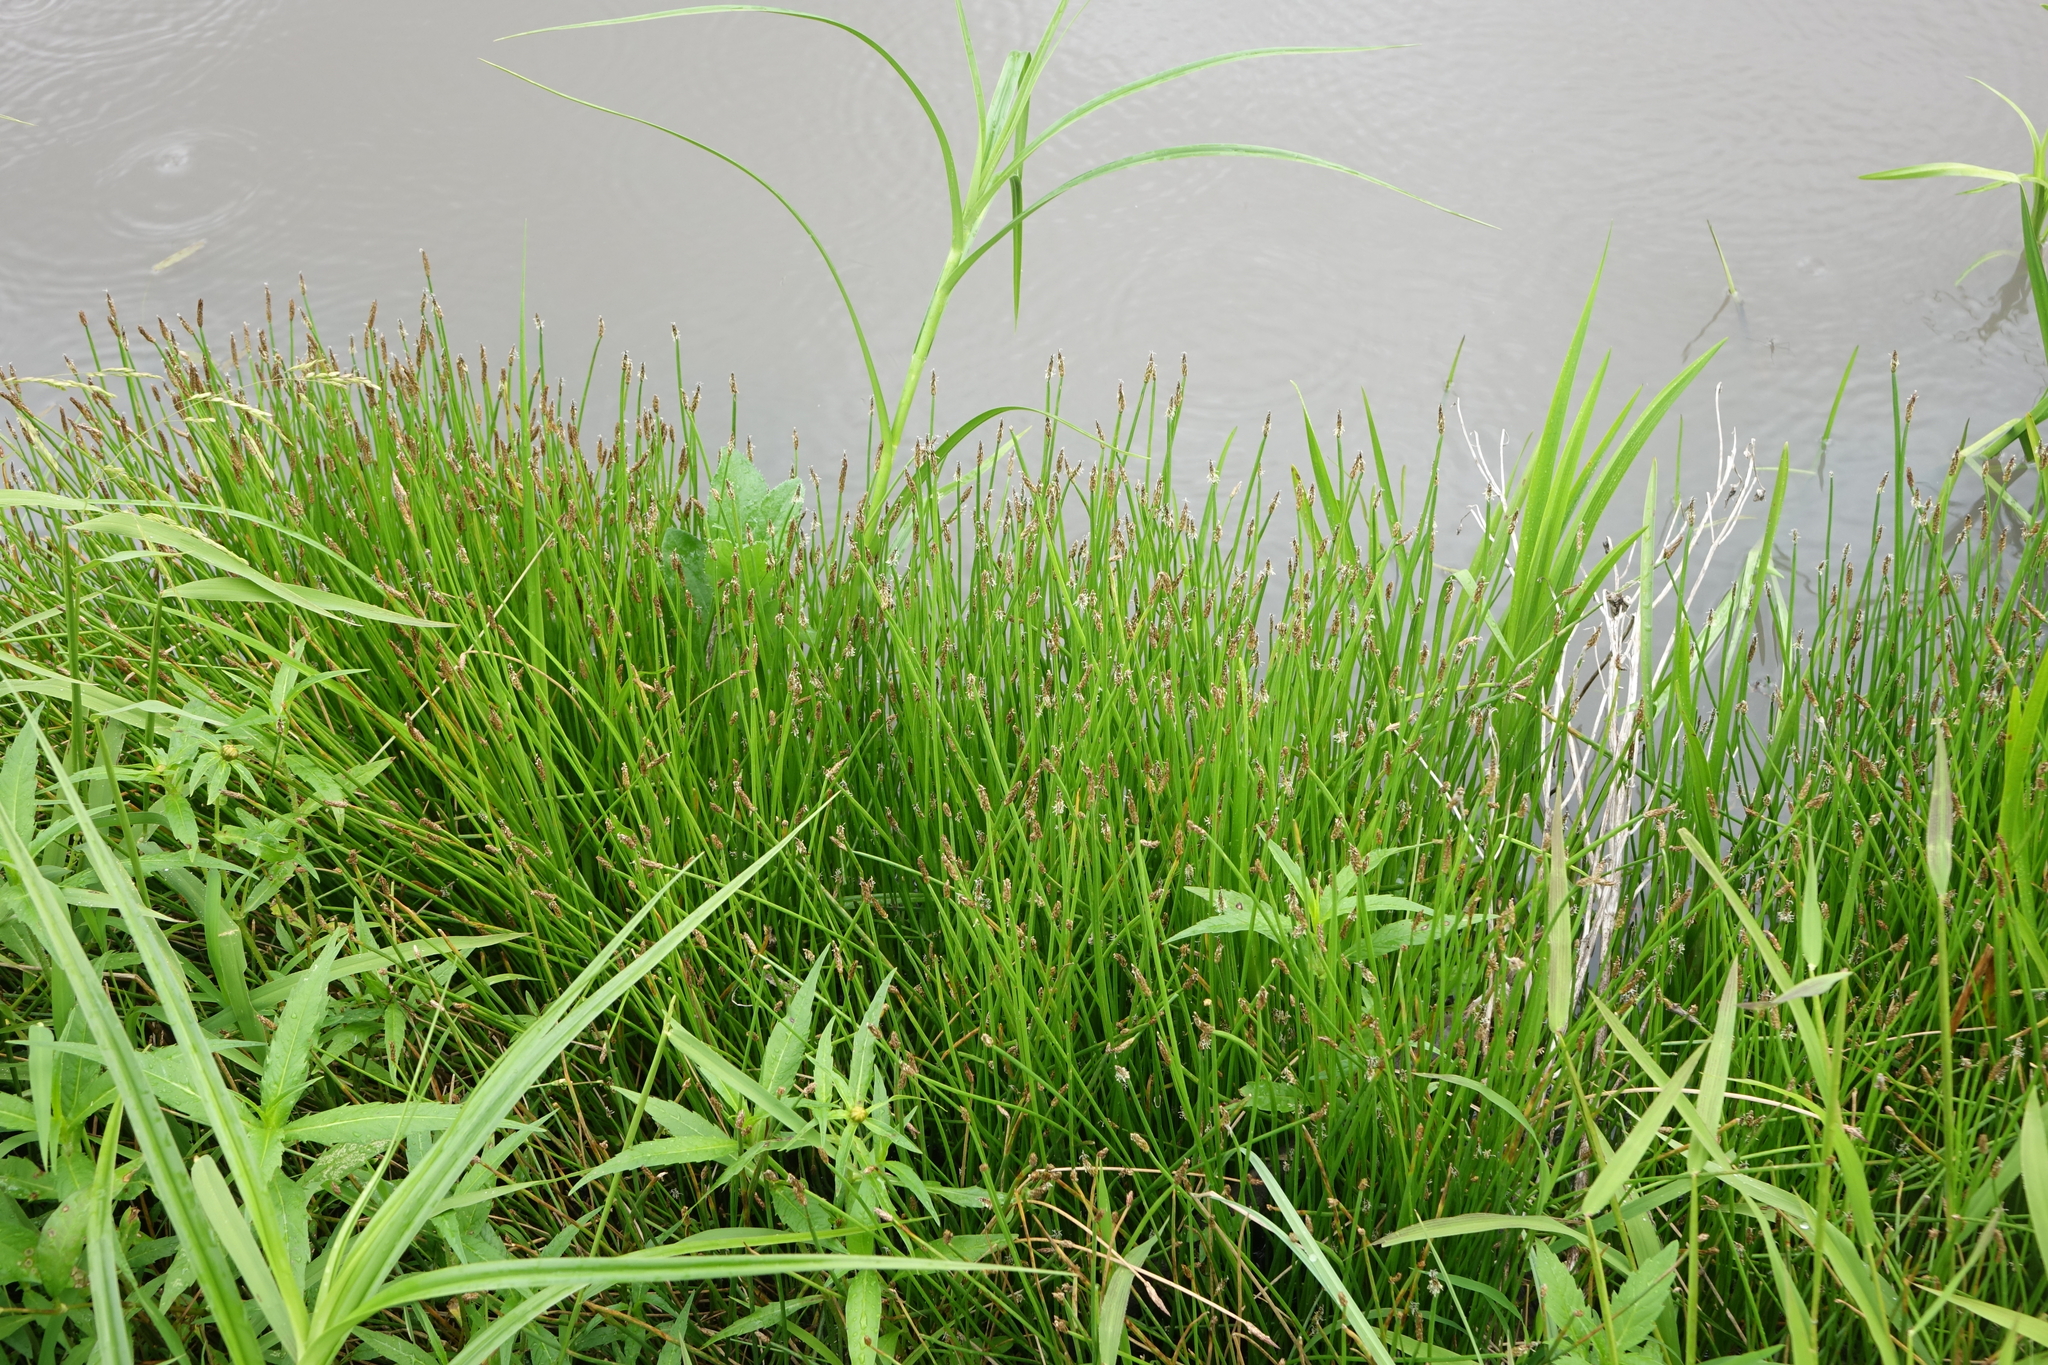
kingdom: Plantae
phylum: Tracheophyta
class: Liliopsida
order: Poales
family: Cyperaceae
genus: Eleocharis
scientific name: Eleocharis palustris
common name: Common spike-rush
